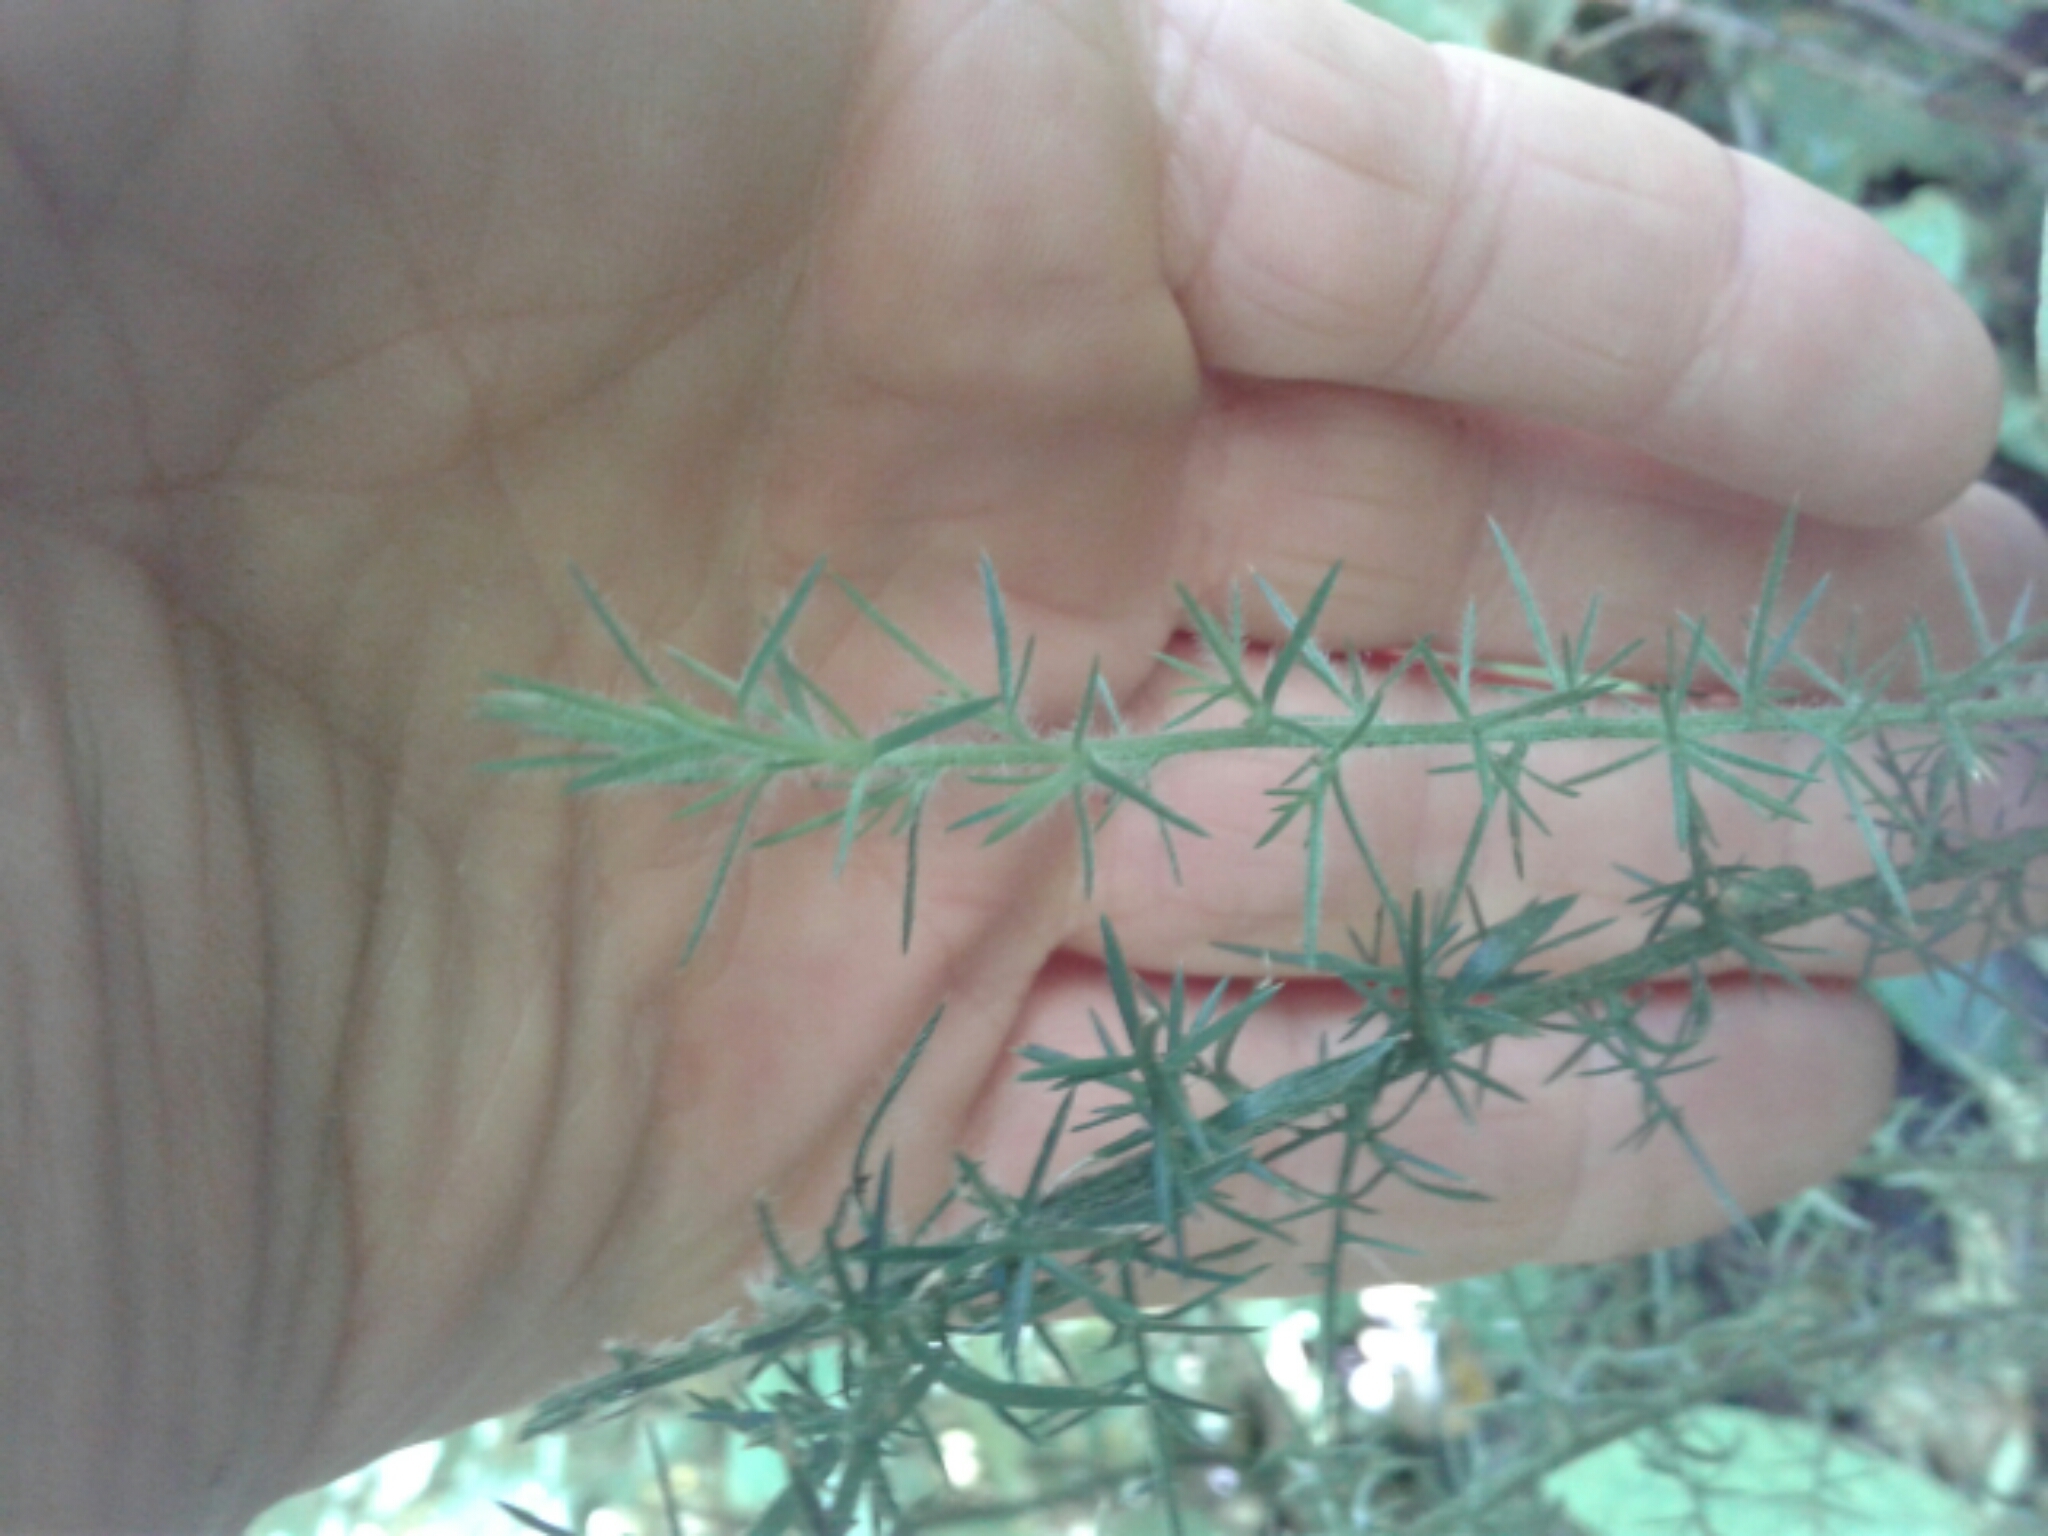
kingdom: Plantae
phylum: Tracheophyta
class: Magnoliopsida
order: Fabales
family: Fabaceae
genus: Ulex
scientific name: Ulex europaeus
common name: Common gorse
